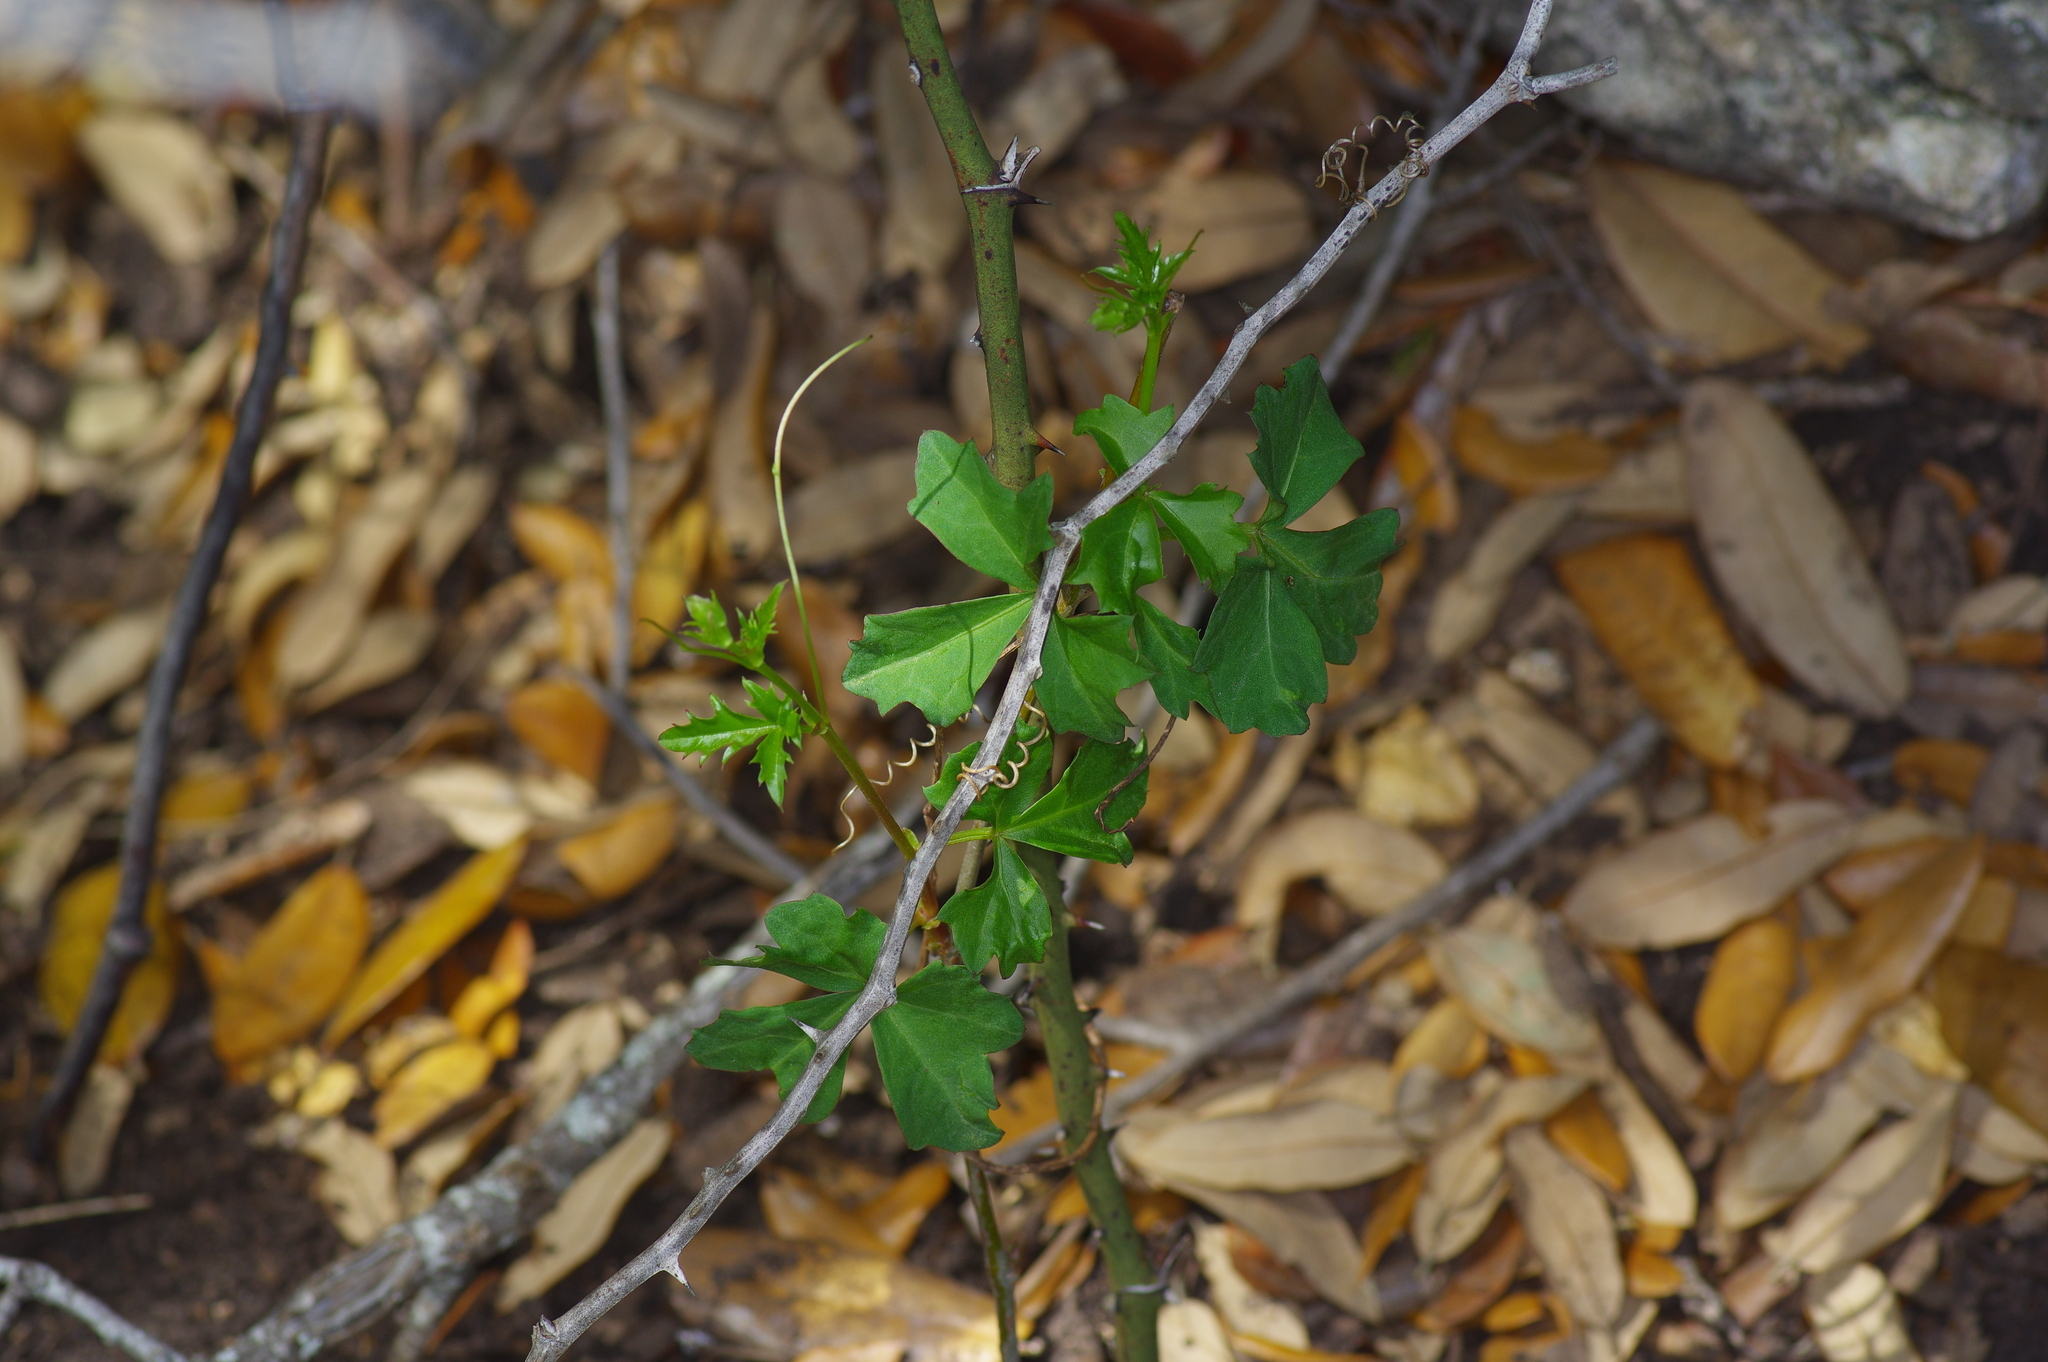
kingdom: Plantae
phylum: Tracheophyta
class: Magnoliopsida
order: Vitales
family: Vitaceae
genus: Cissus
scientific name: Cissus trifoliata
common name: Vine-sorrel
